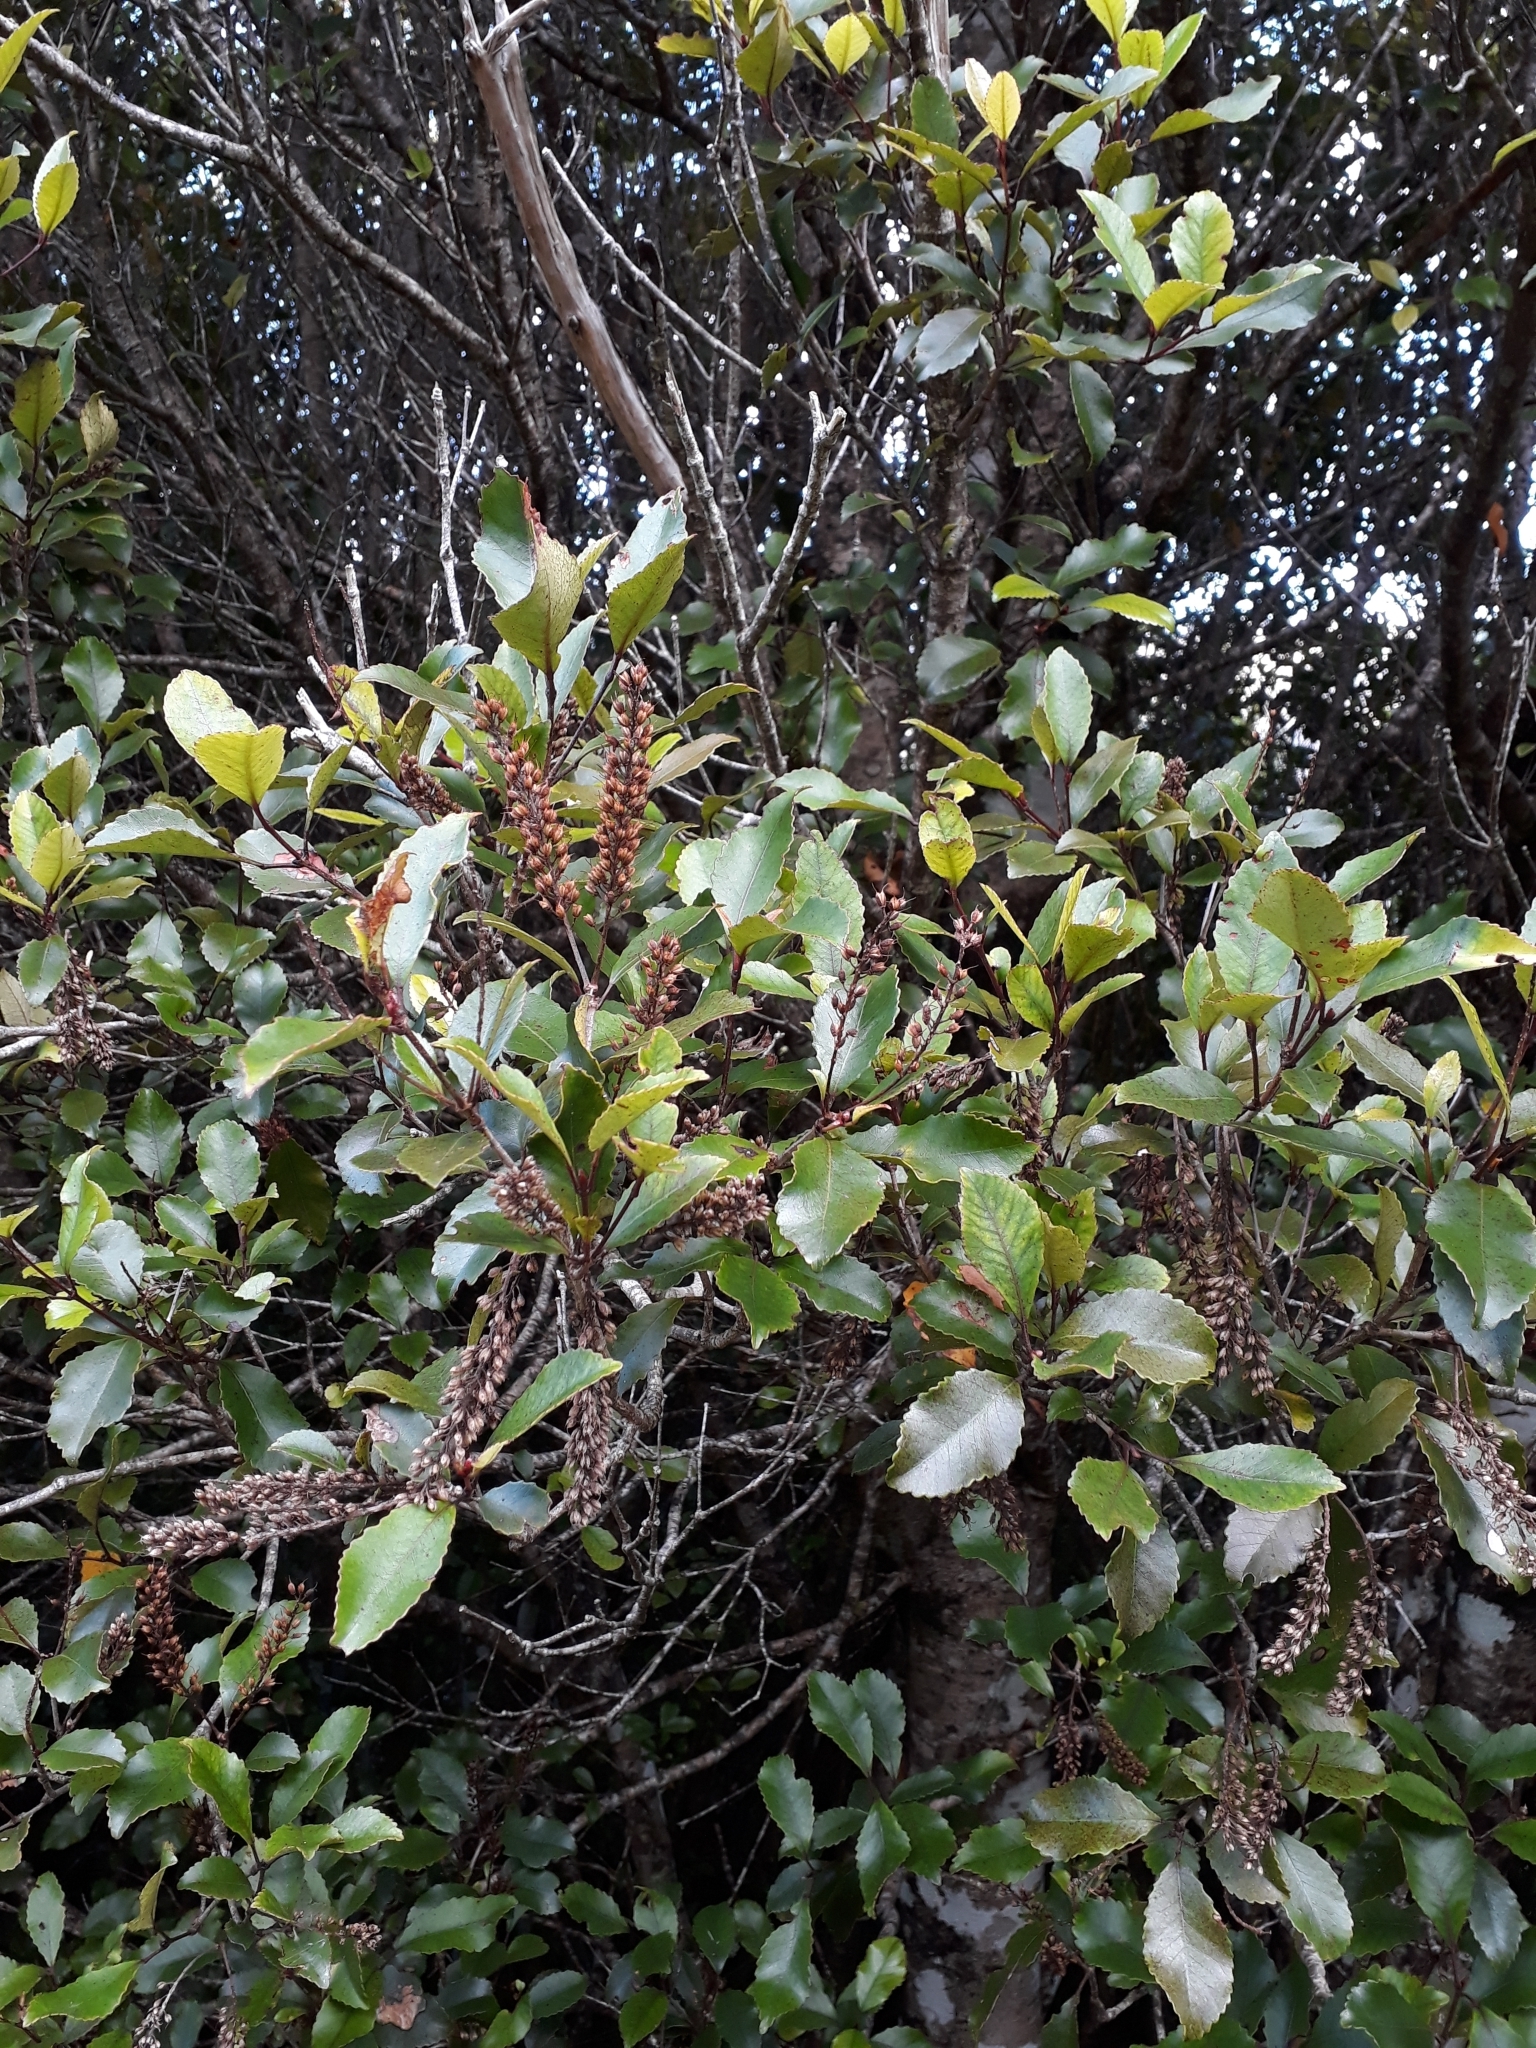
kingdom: Plantae
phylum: Tracheophyta
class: Magnoliopsida
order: Oxalidales
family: Cunoniaceae
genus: Pterophylla
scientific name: Pterophylla racemosa
